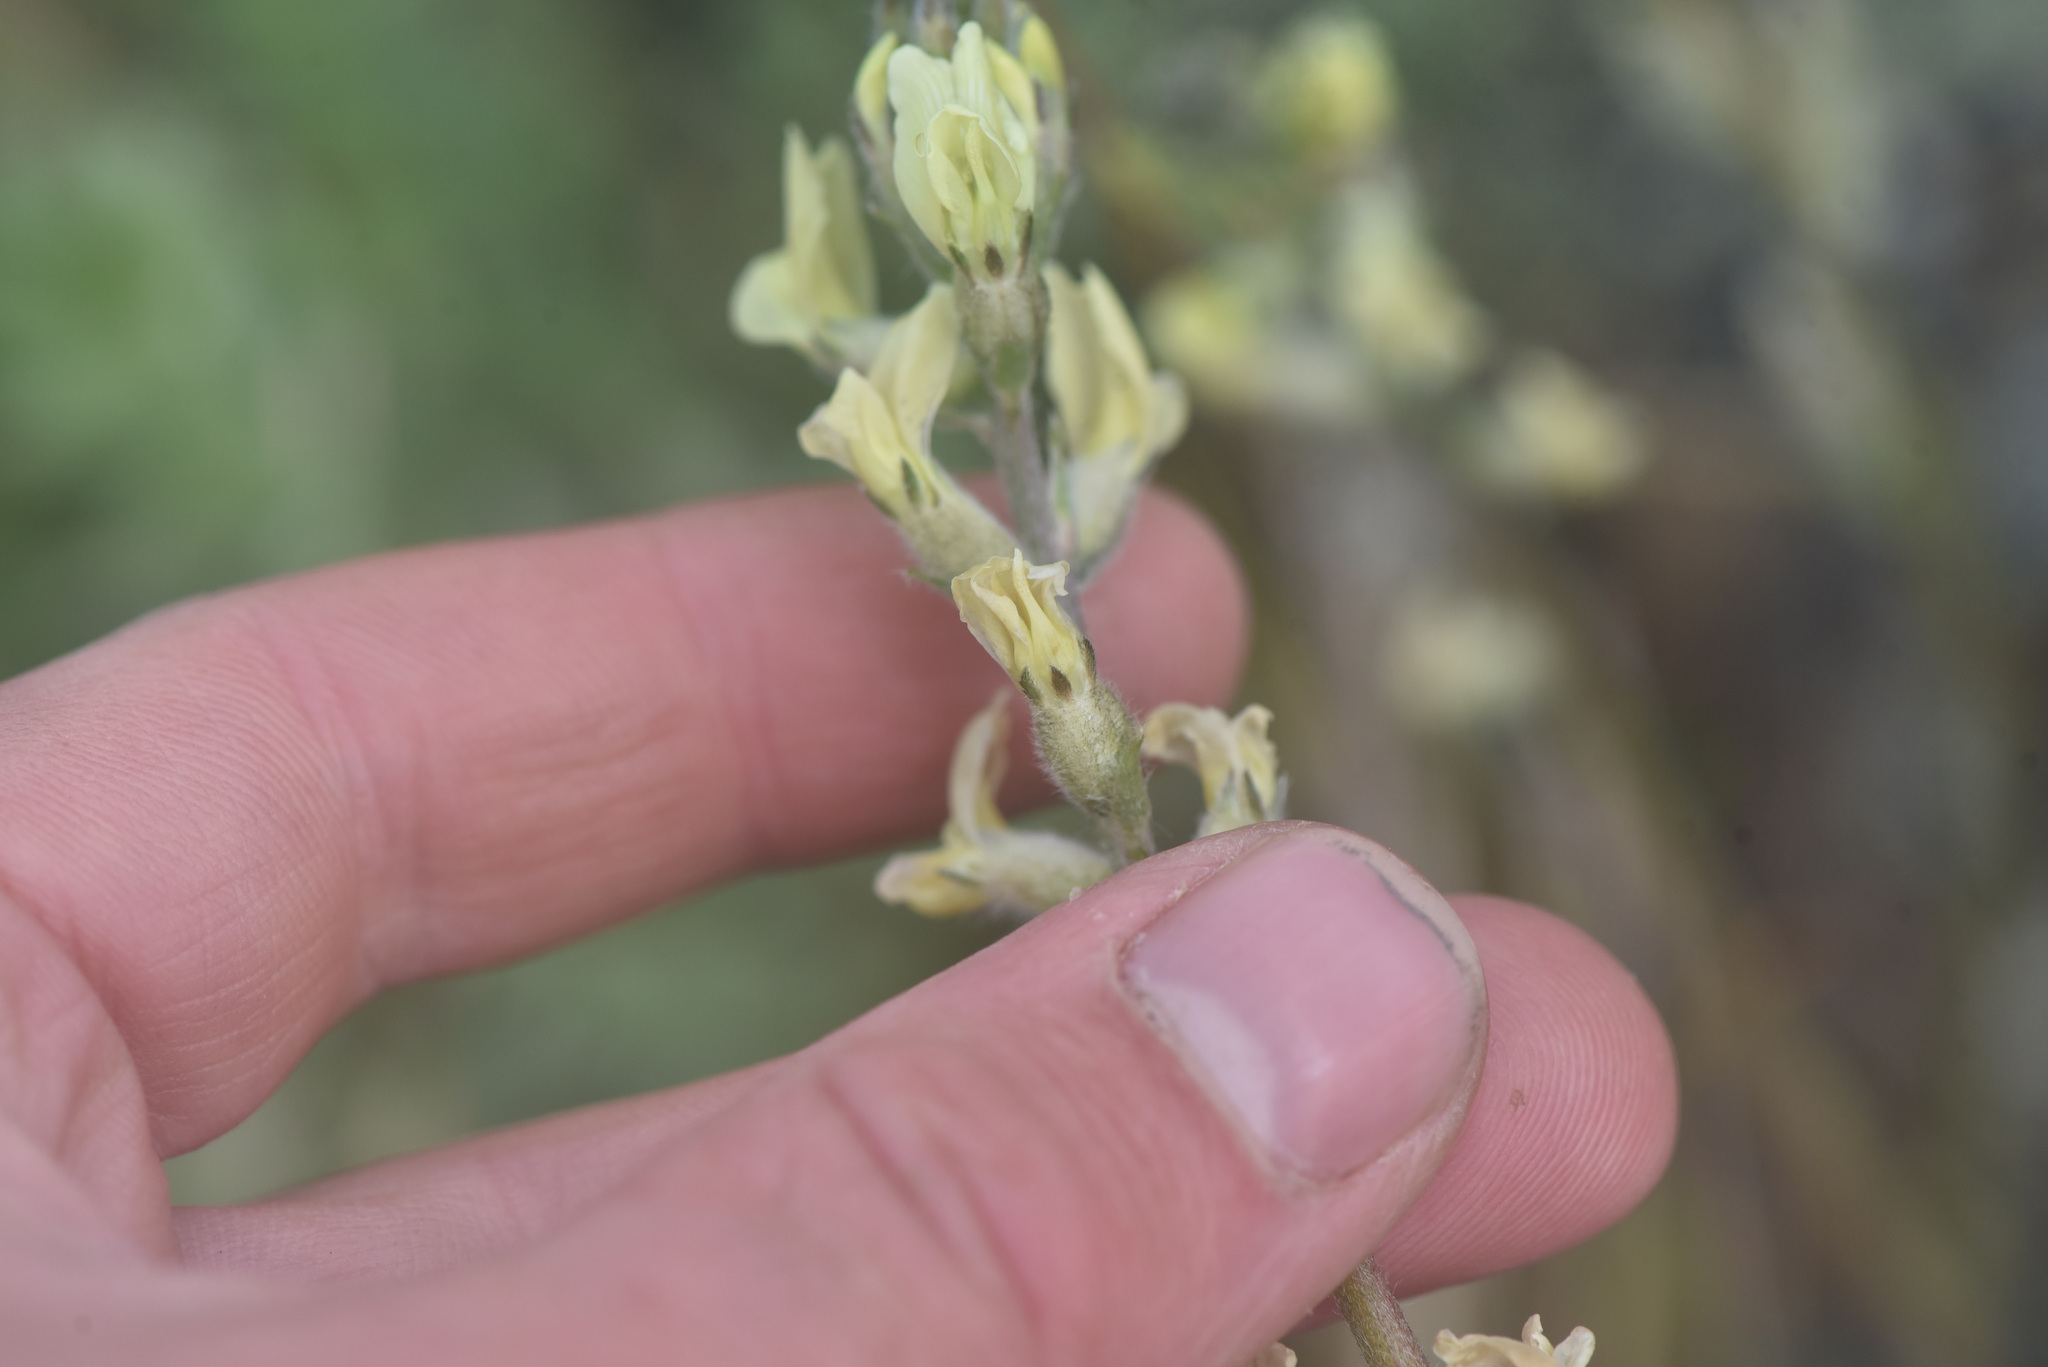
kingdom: Plantae
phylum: Tracheophyta
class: Magnoliopsida
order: Fabales
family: Fabaceae
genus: Oxytropis
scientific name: Oxytropis campestris
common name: Field locoweed
